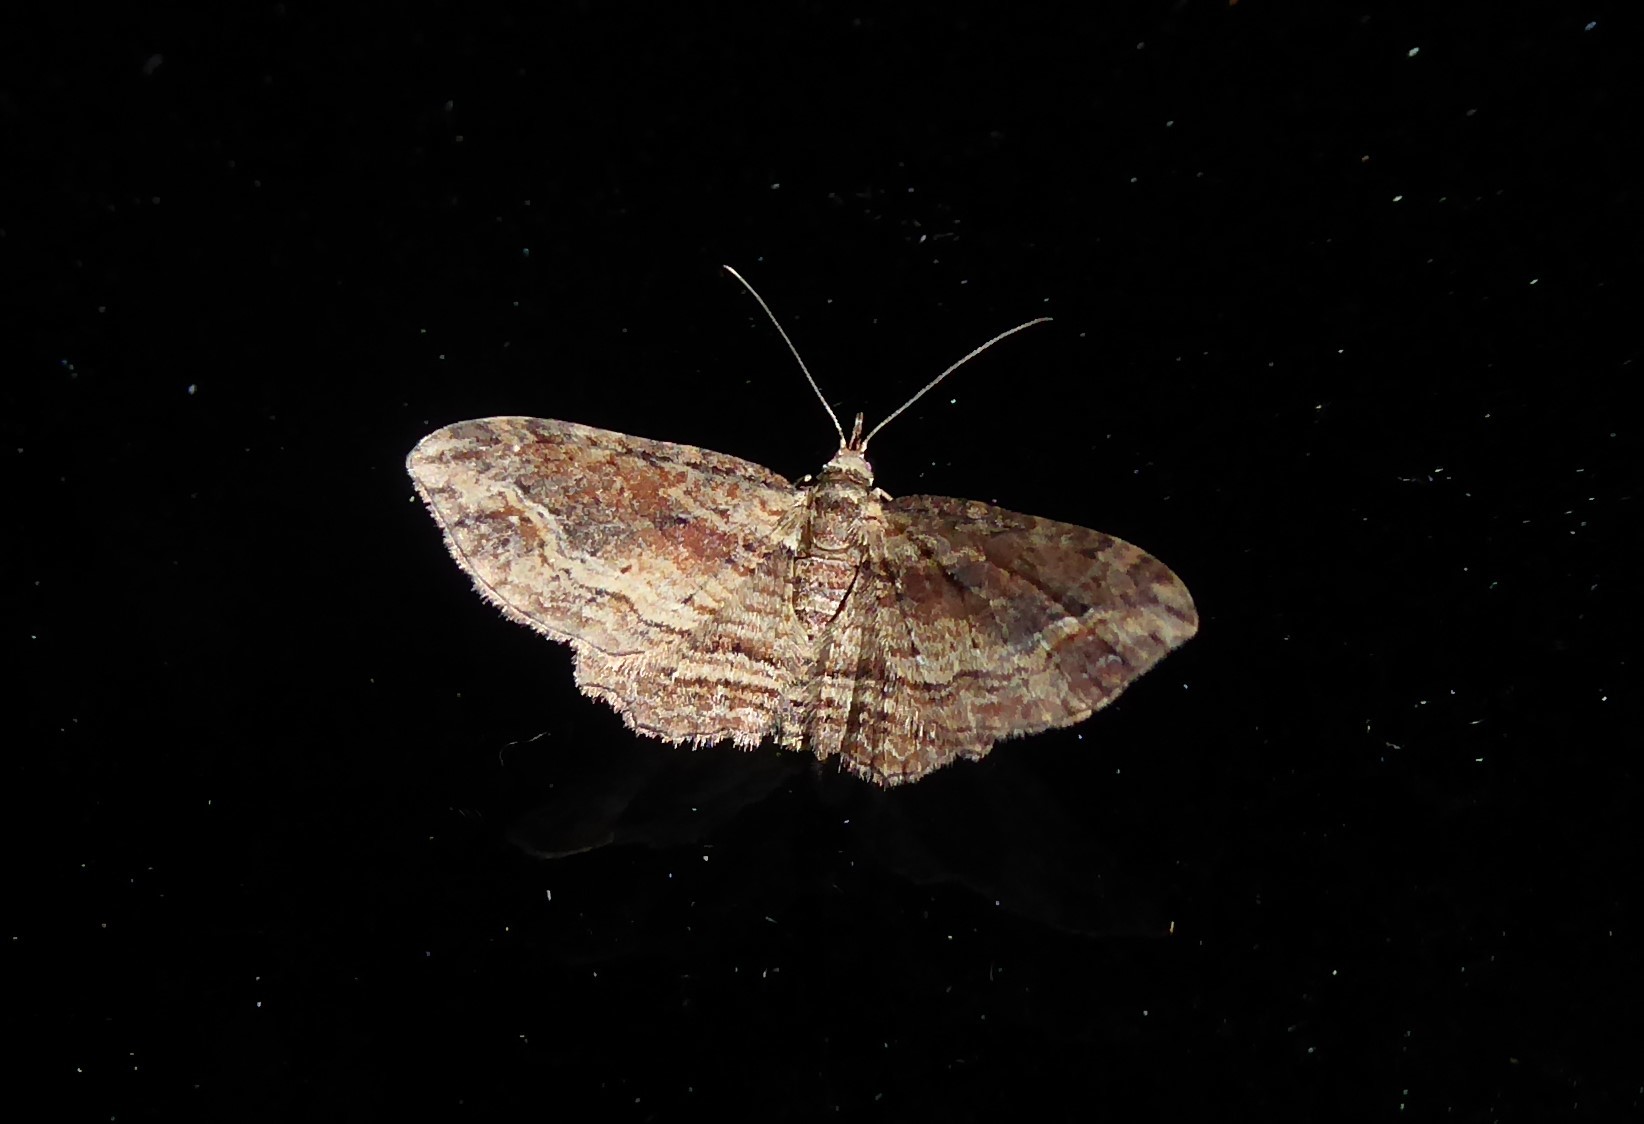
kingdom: Animalia
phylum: Arthropoda
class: Insecta
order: Lepidoptera
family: Geometridae
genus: Chloroclystis
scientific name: Chloroclystis filata
